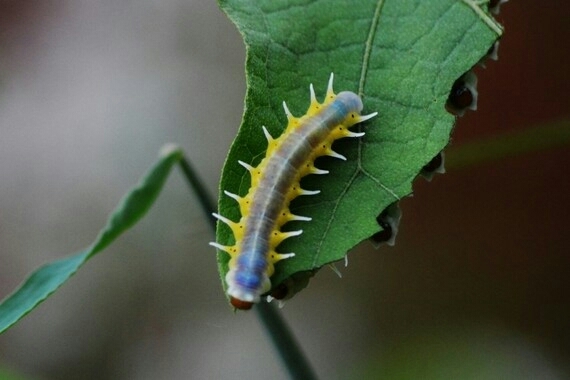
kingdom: Animalia
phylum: Arthropoda
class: Insecta
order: Lepidoptera
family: Nymphalidae
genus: Mechanitis
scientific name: Mechanitis polymnia
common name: Disturbed tigerwing
